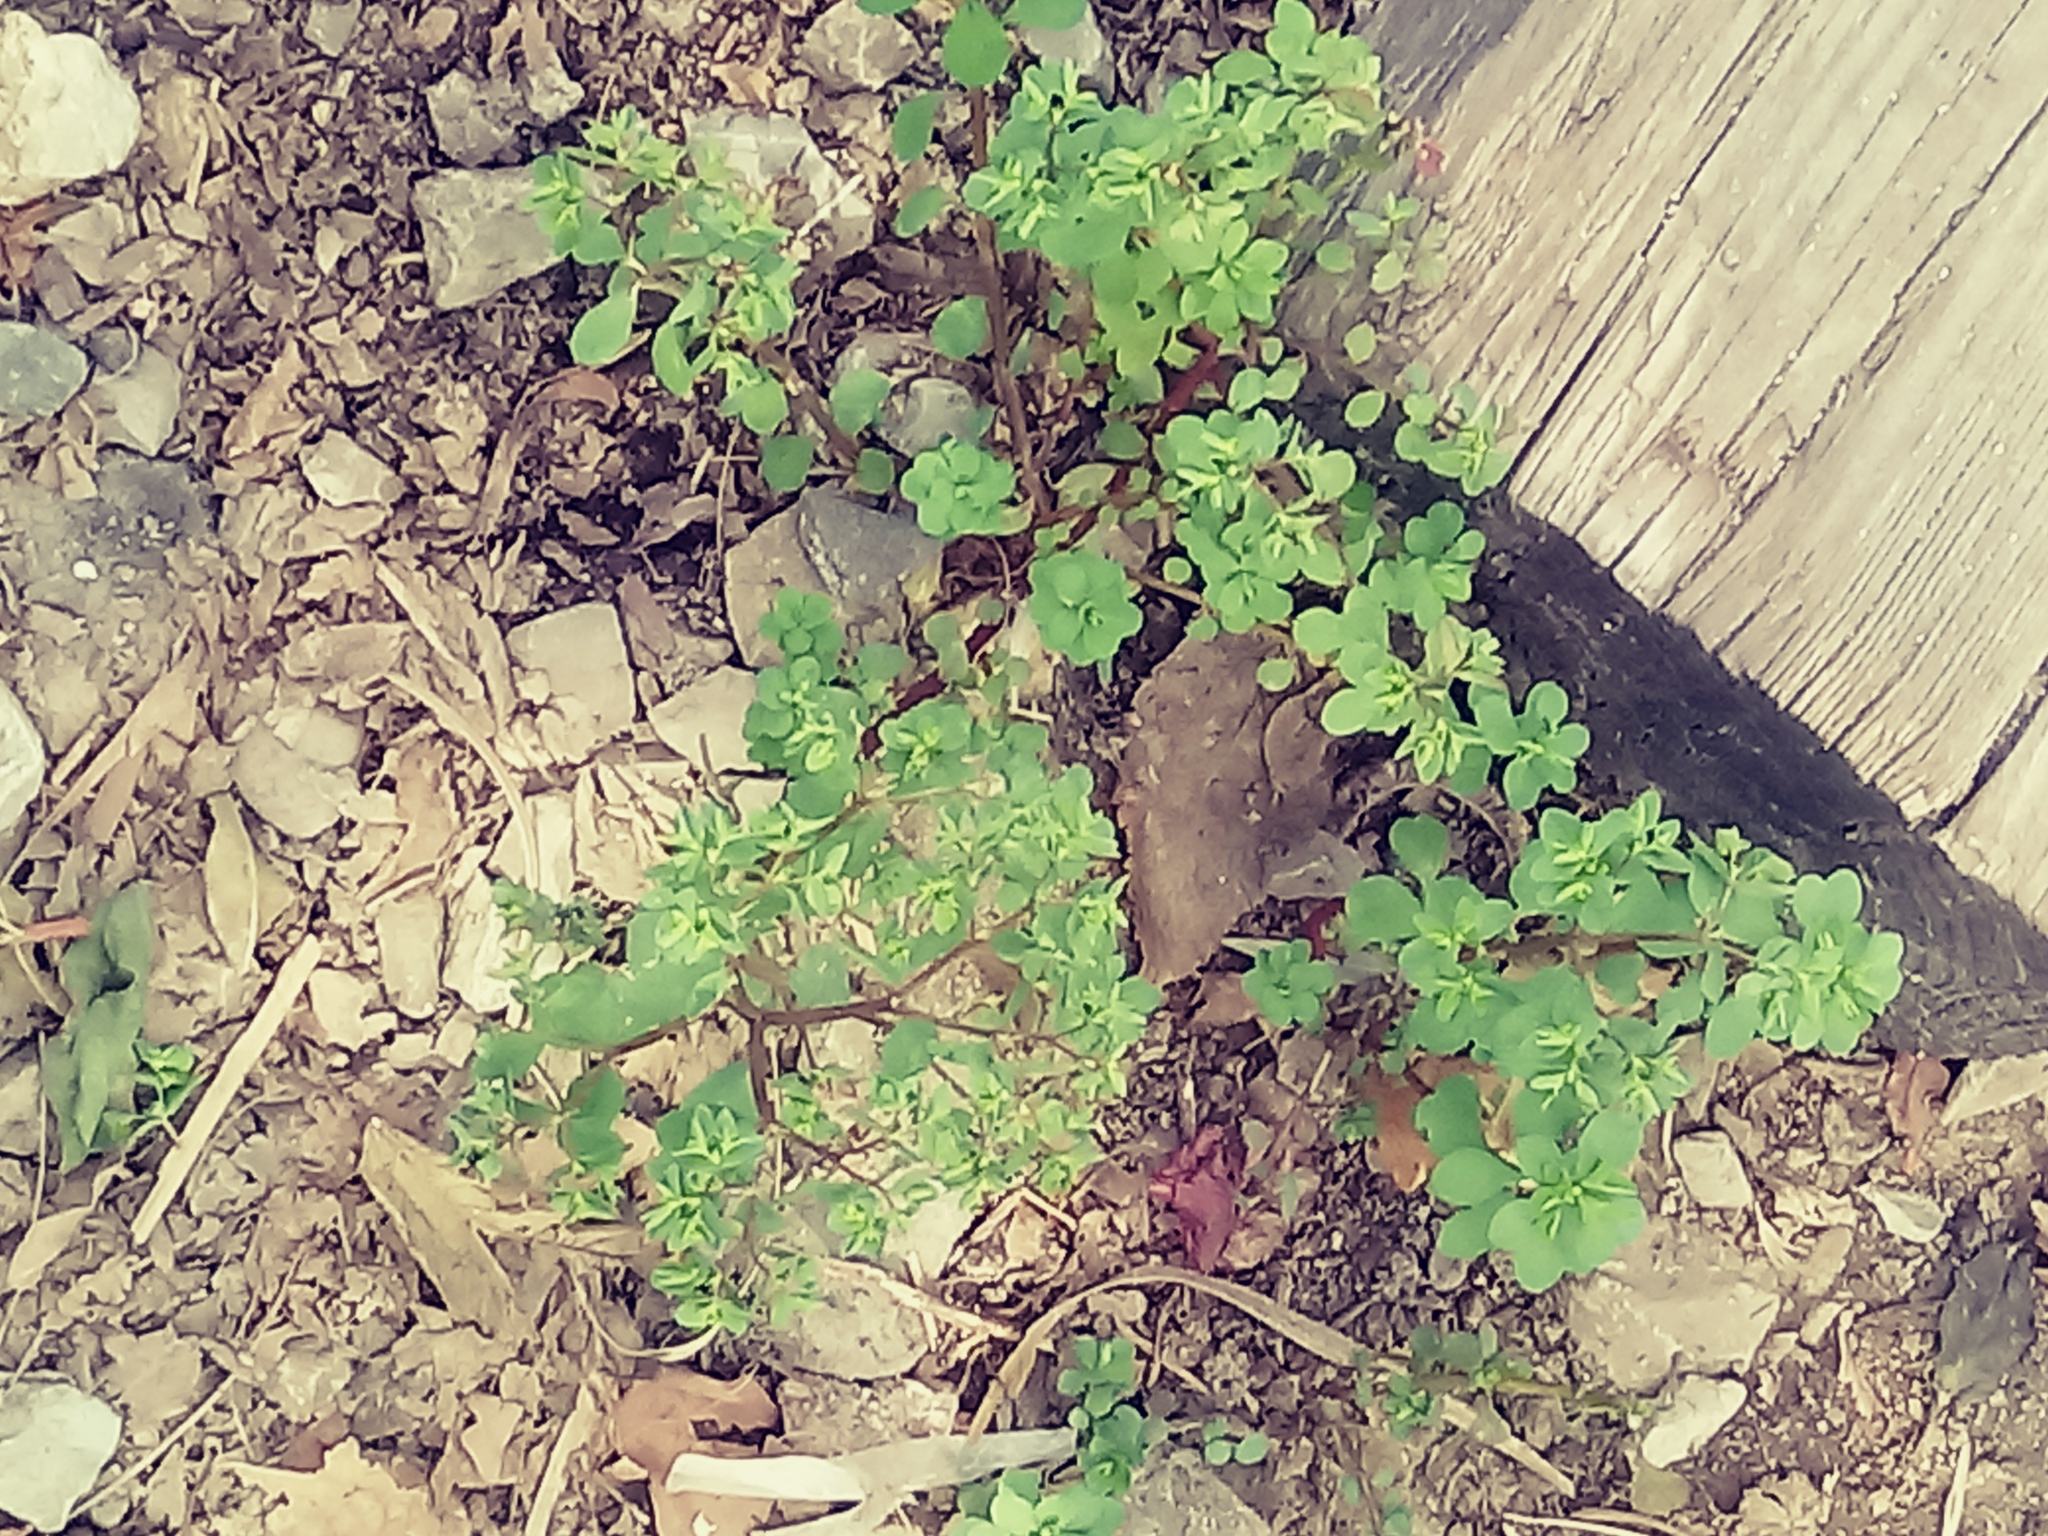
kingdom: Plantae
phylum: Tracheophyta
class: Magnoliopsida
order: Malpighiales
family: Euphorbiaceae
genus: Euphorbia
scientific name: Euphorbia peplus
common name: Petty spurge
